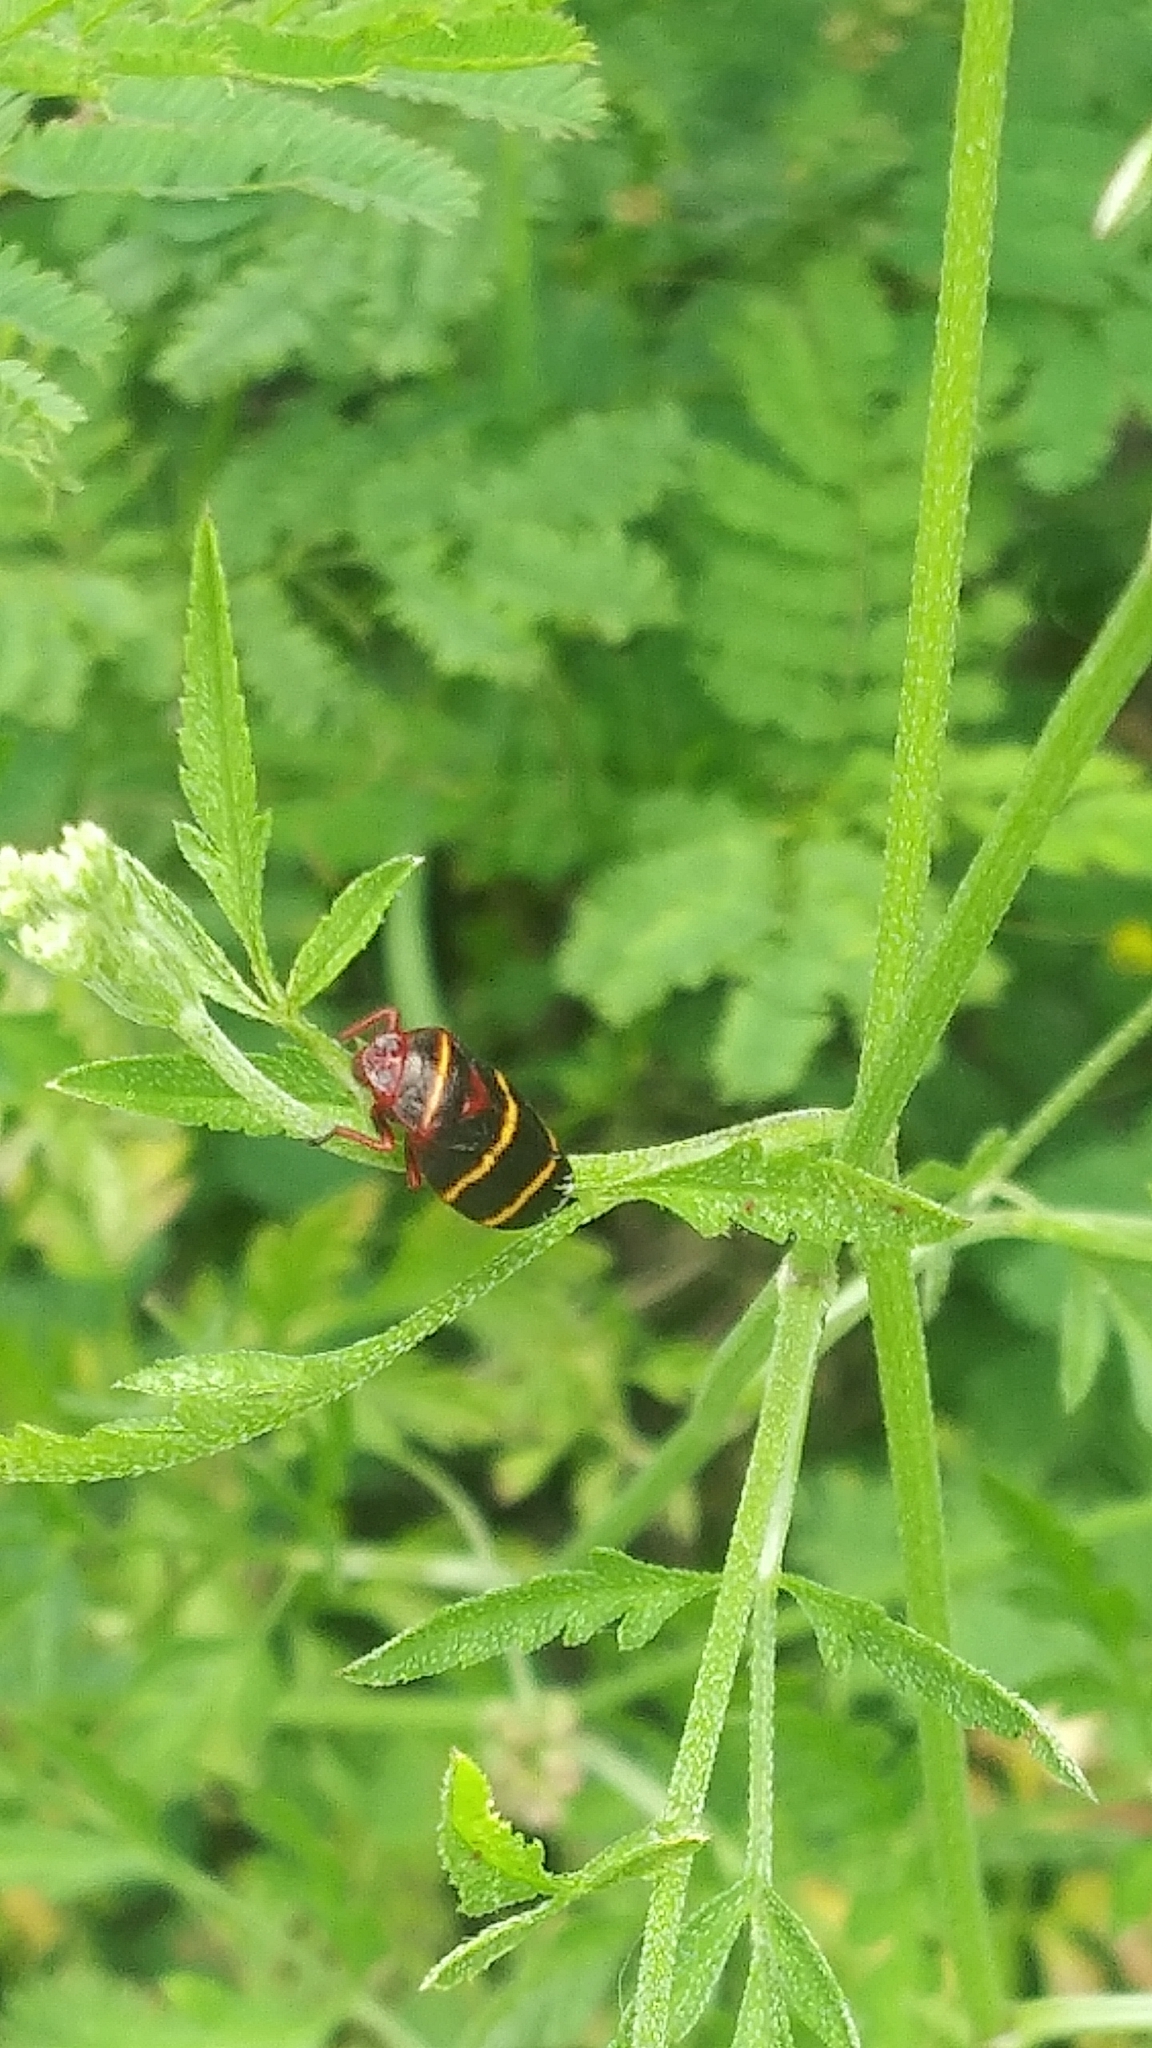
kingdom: Animalia
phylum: Arthropoda
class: Insecta
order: Hemiptera
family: Cercopidae
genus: Prosapia
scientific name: Prosapia bicincta
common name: Twolined spittlebug
